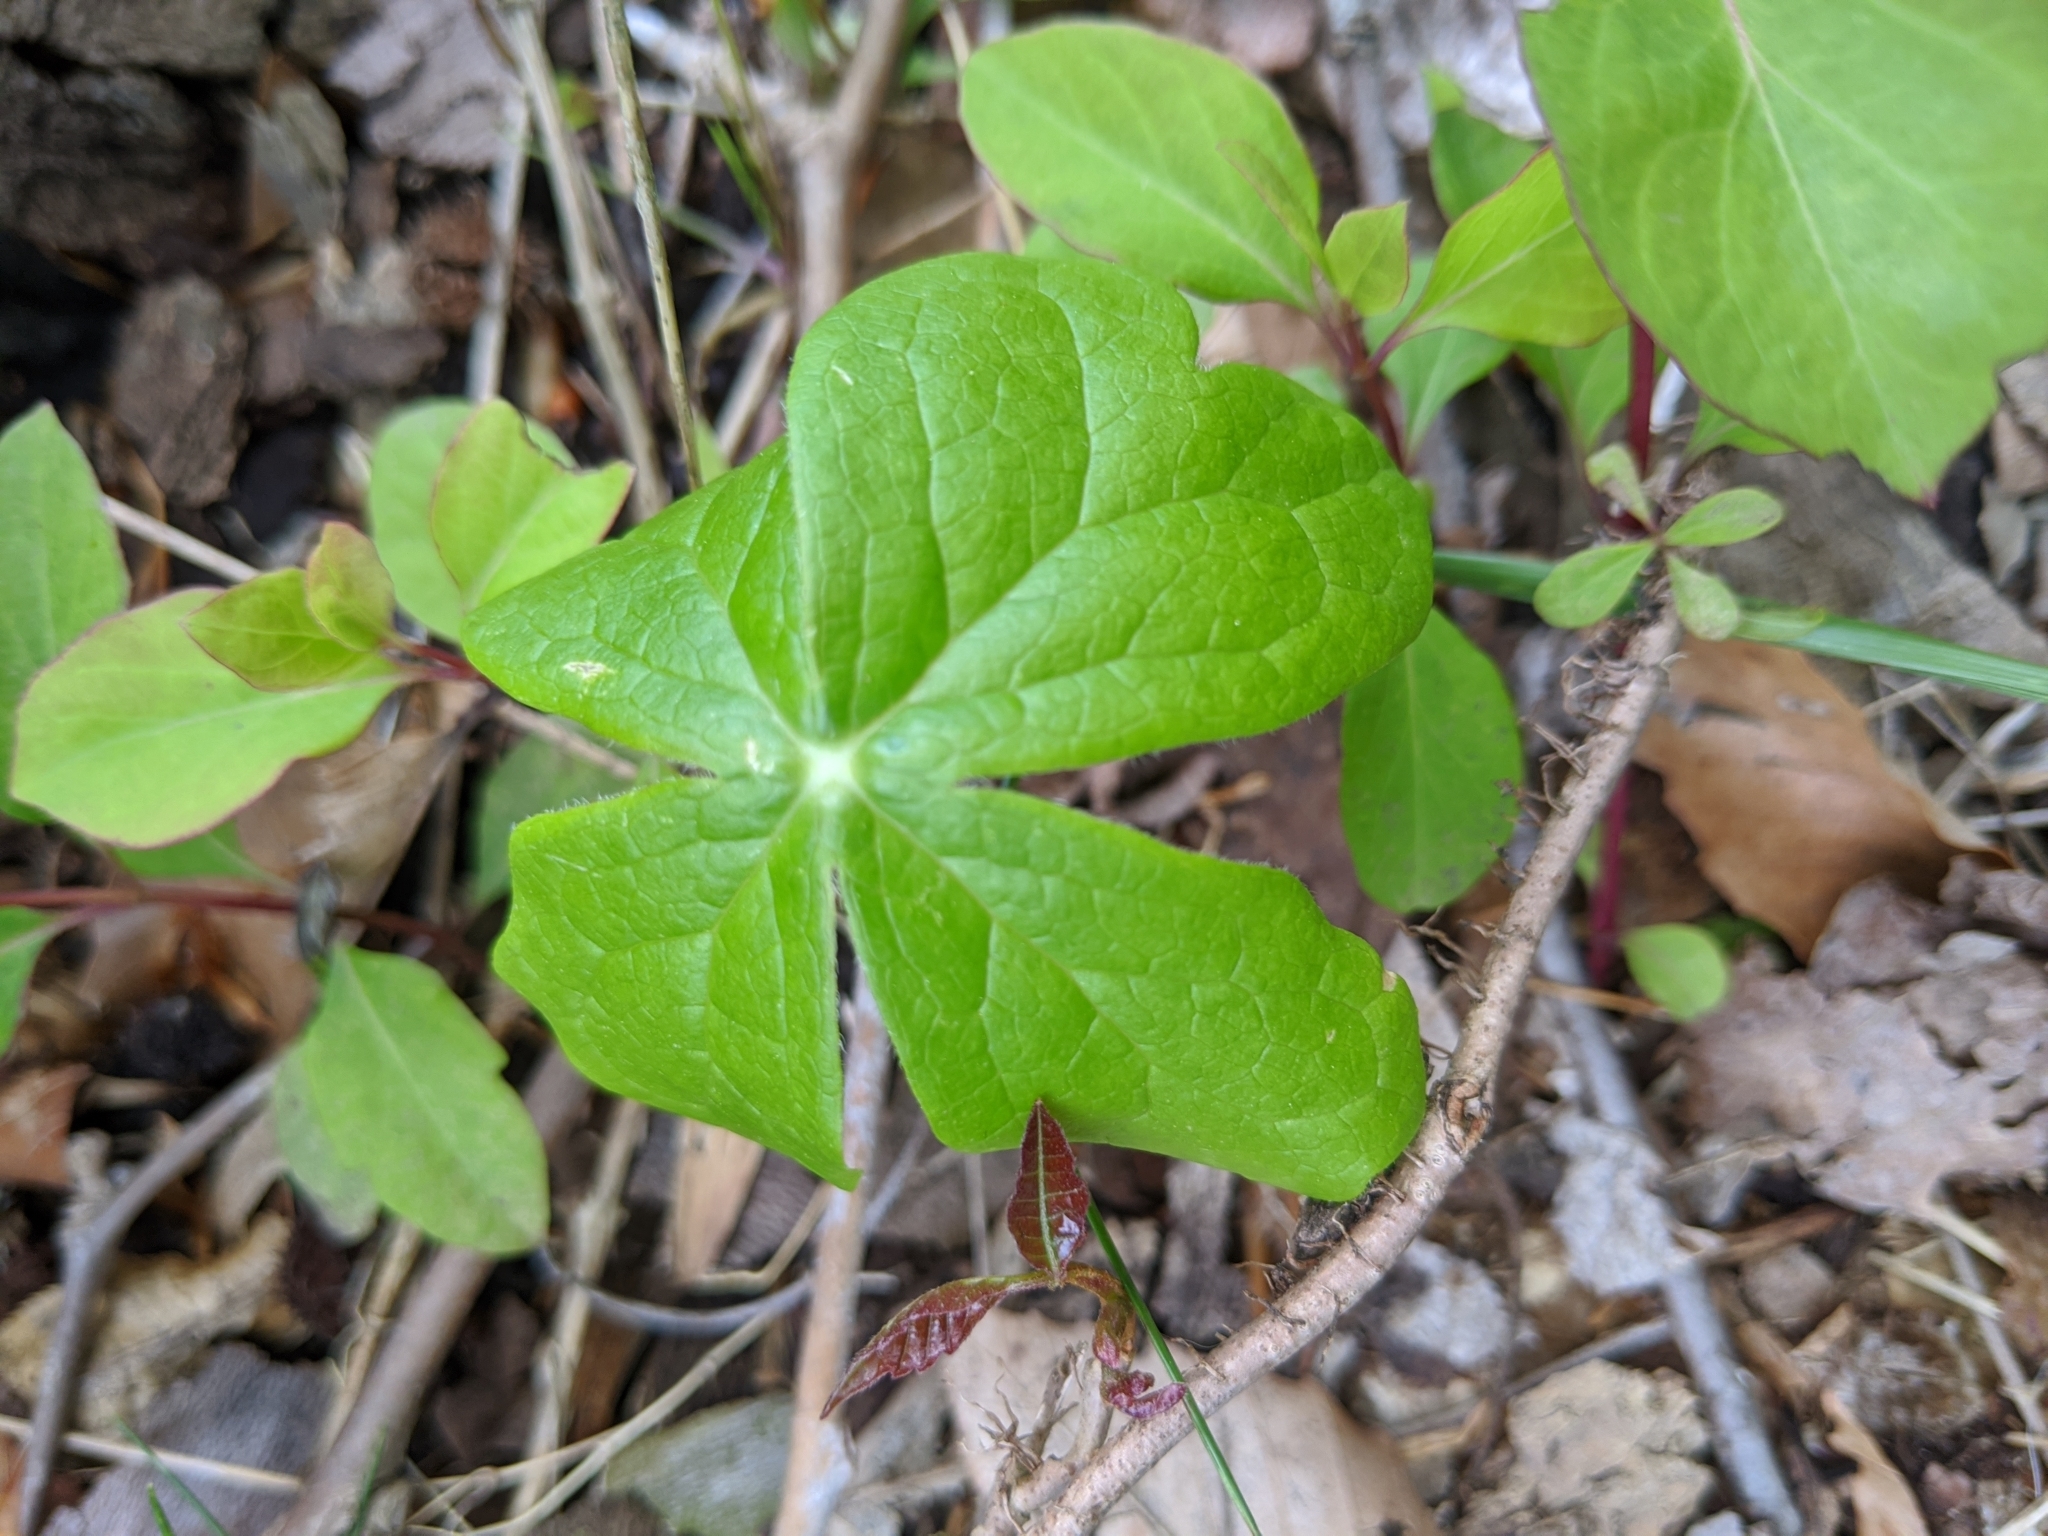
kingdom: Plantae
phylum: Tracheophyta
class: Magnoliopsida
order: Ranunculales
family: Berberidaceae
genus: Podophyllum
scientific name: Podophyllum peltatum
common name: Wild mandrake
